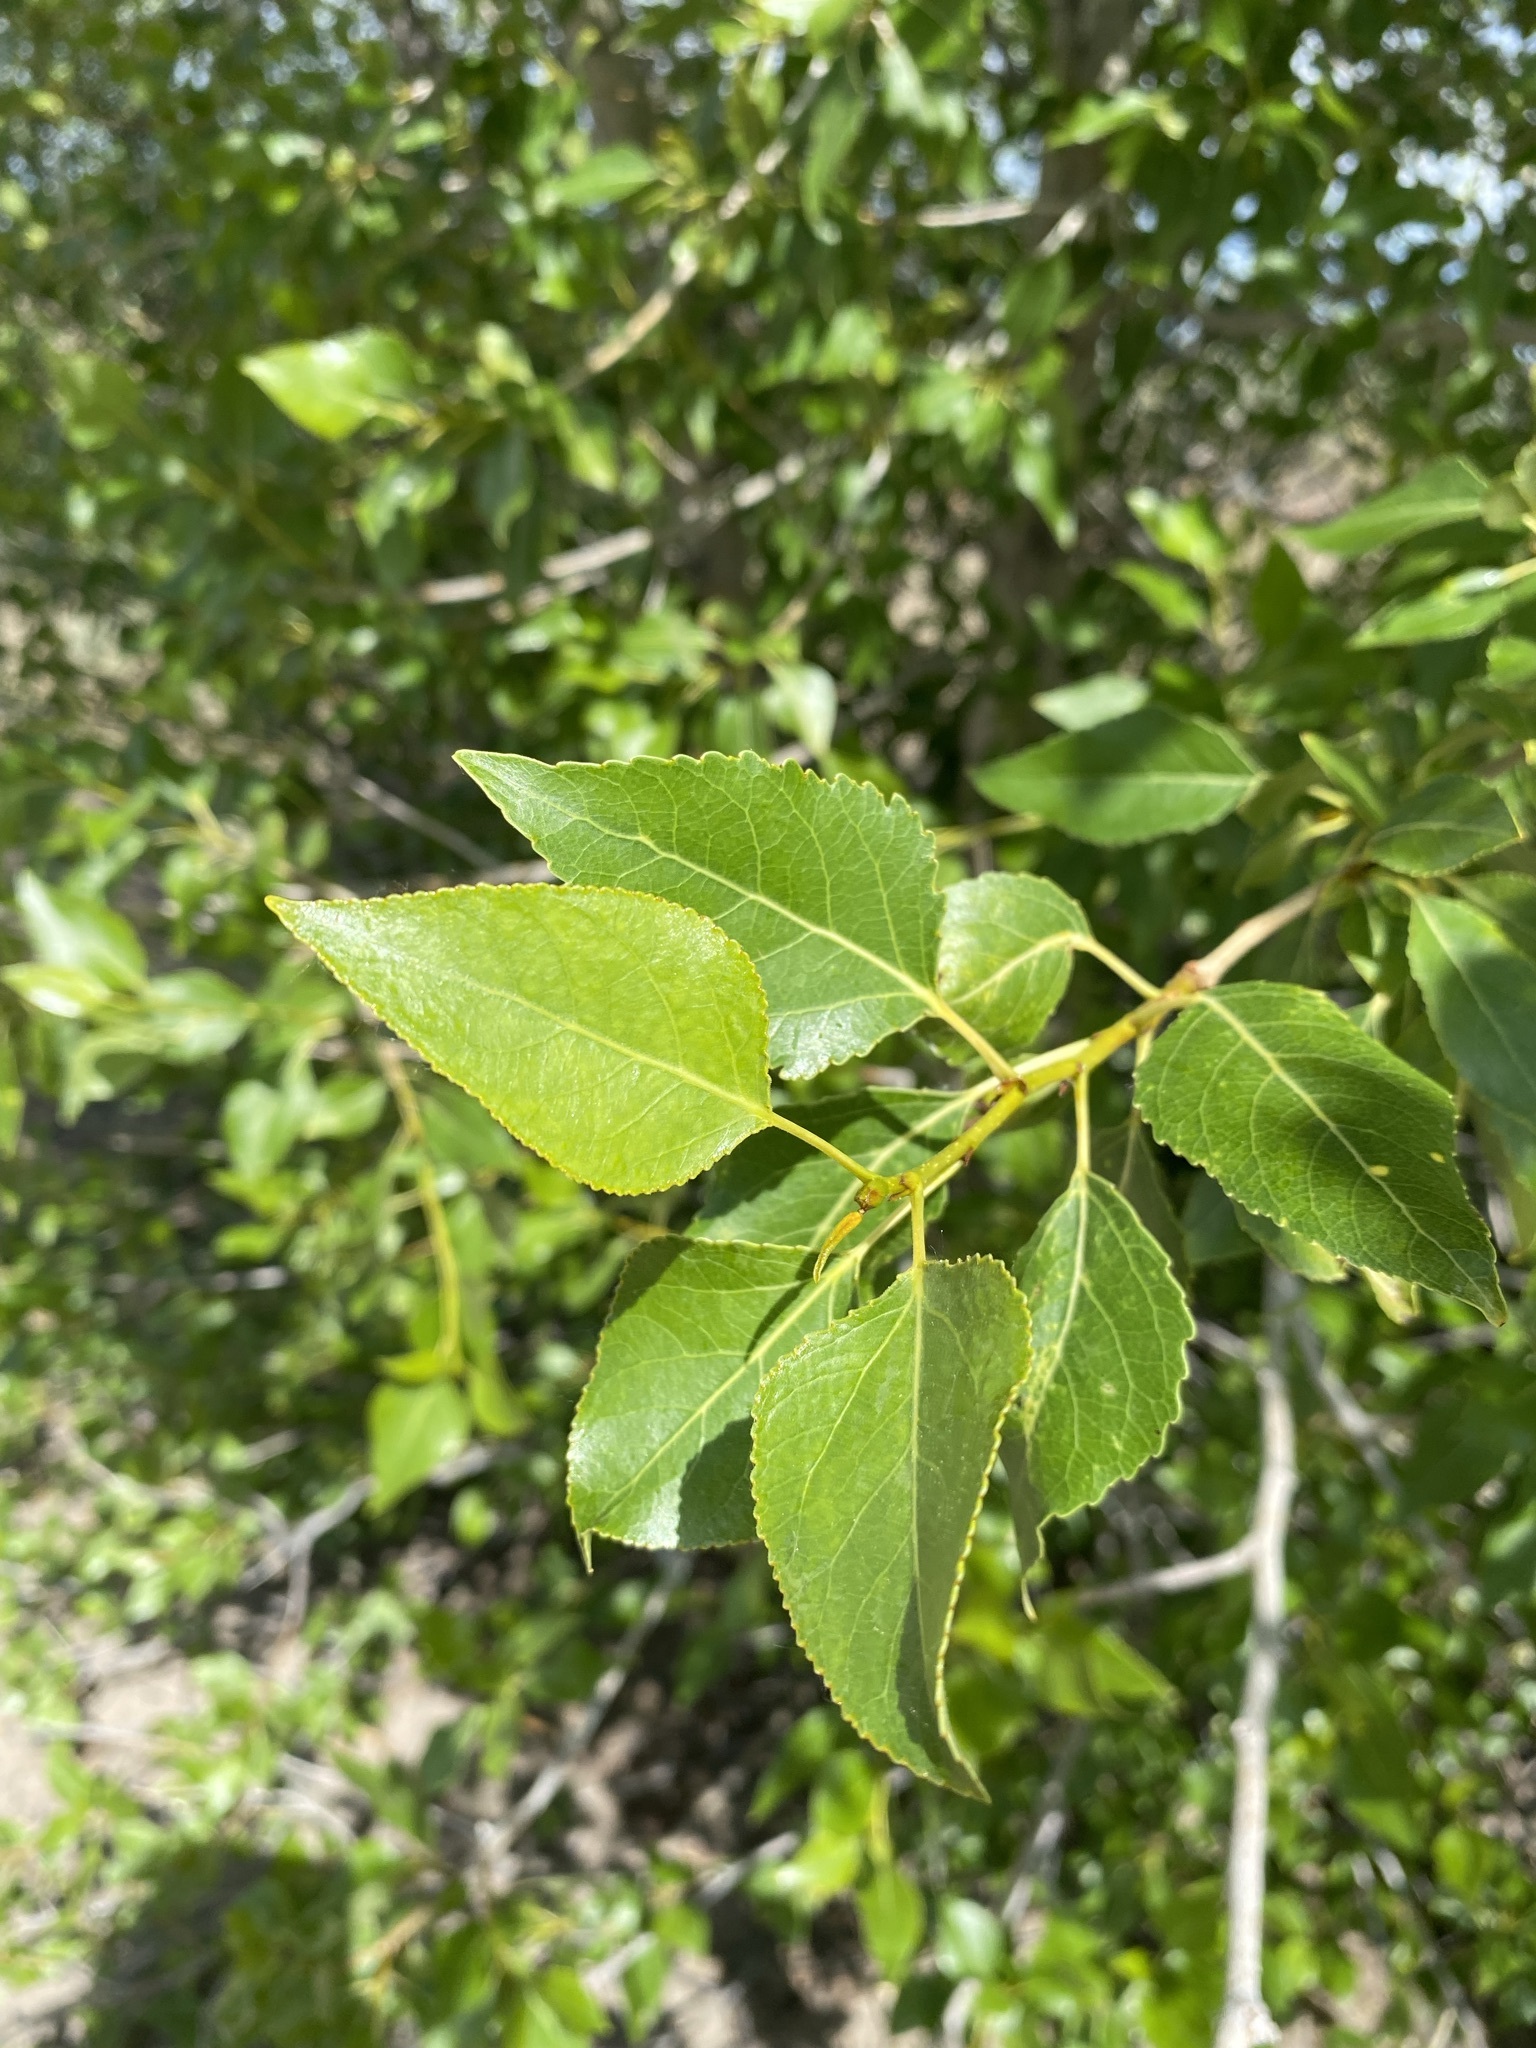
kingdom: Plantae
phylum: Tracheophyta
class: Magnoliopsida
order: Malpighiales
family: Salicaceae
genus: Populus
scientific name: Populus trichocarpa
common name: Black cottonwood
